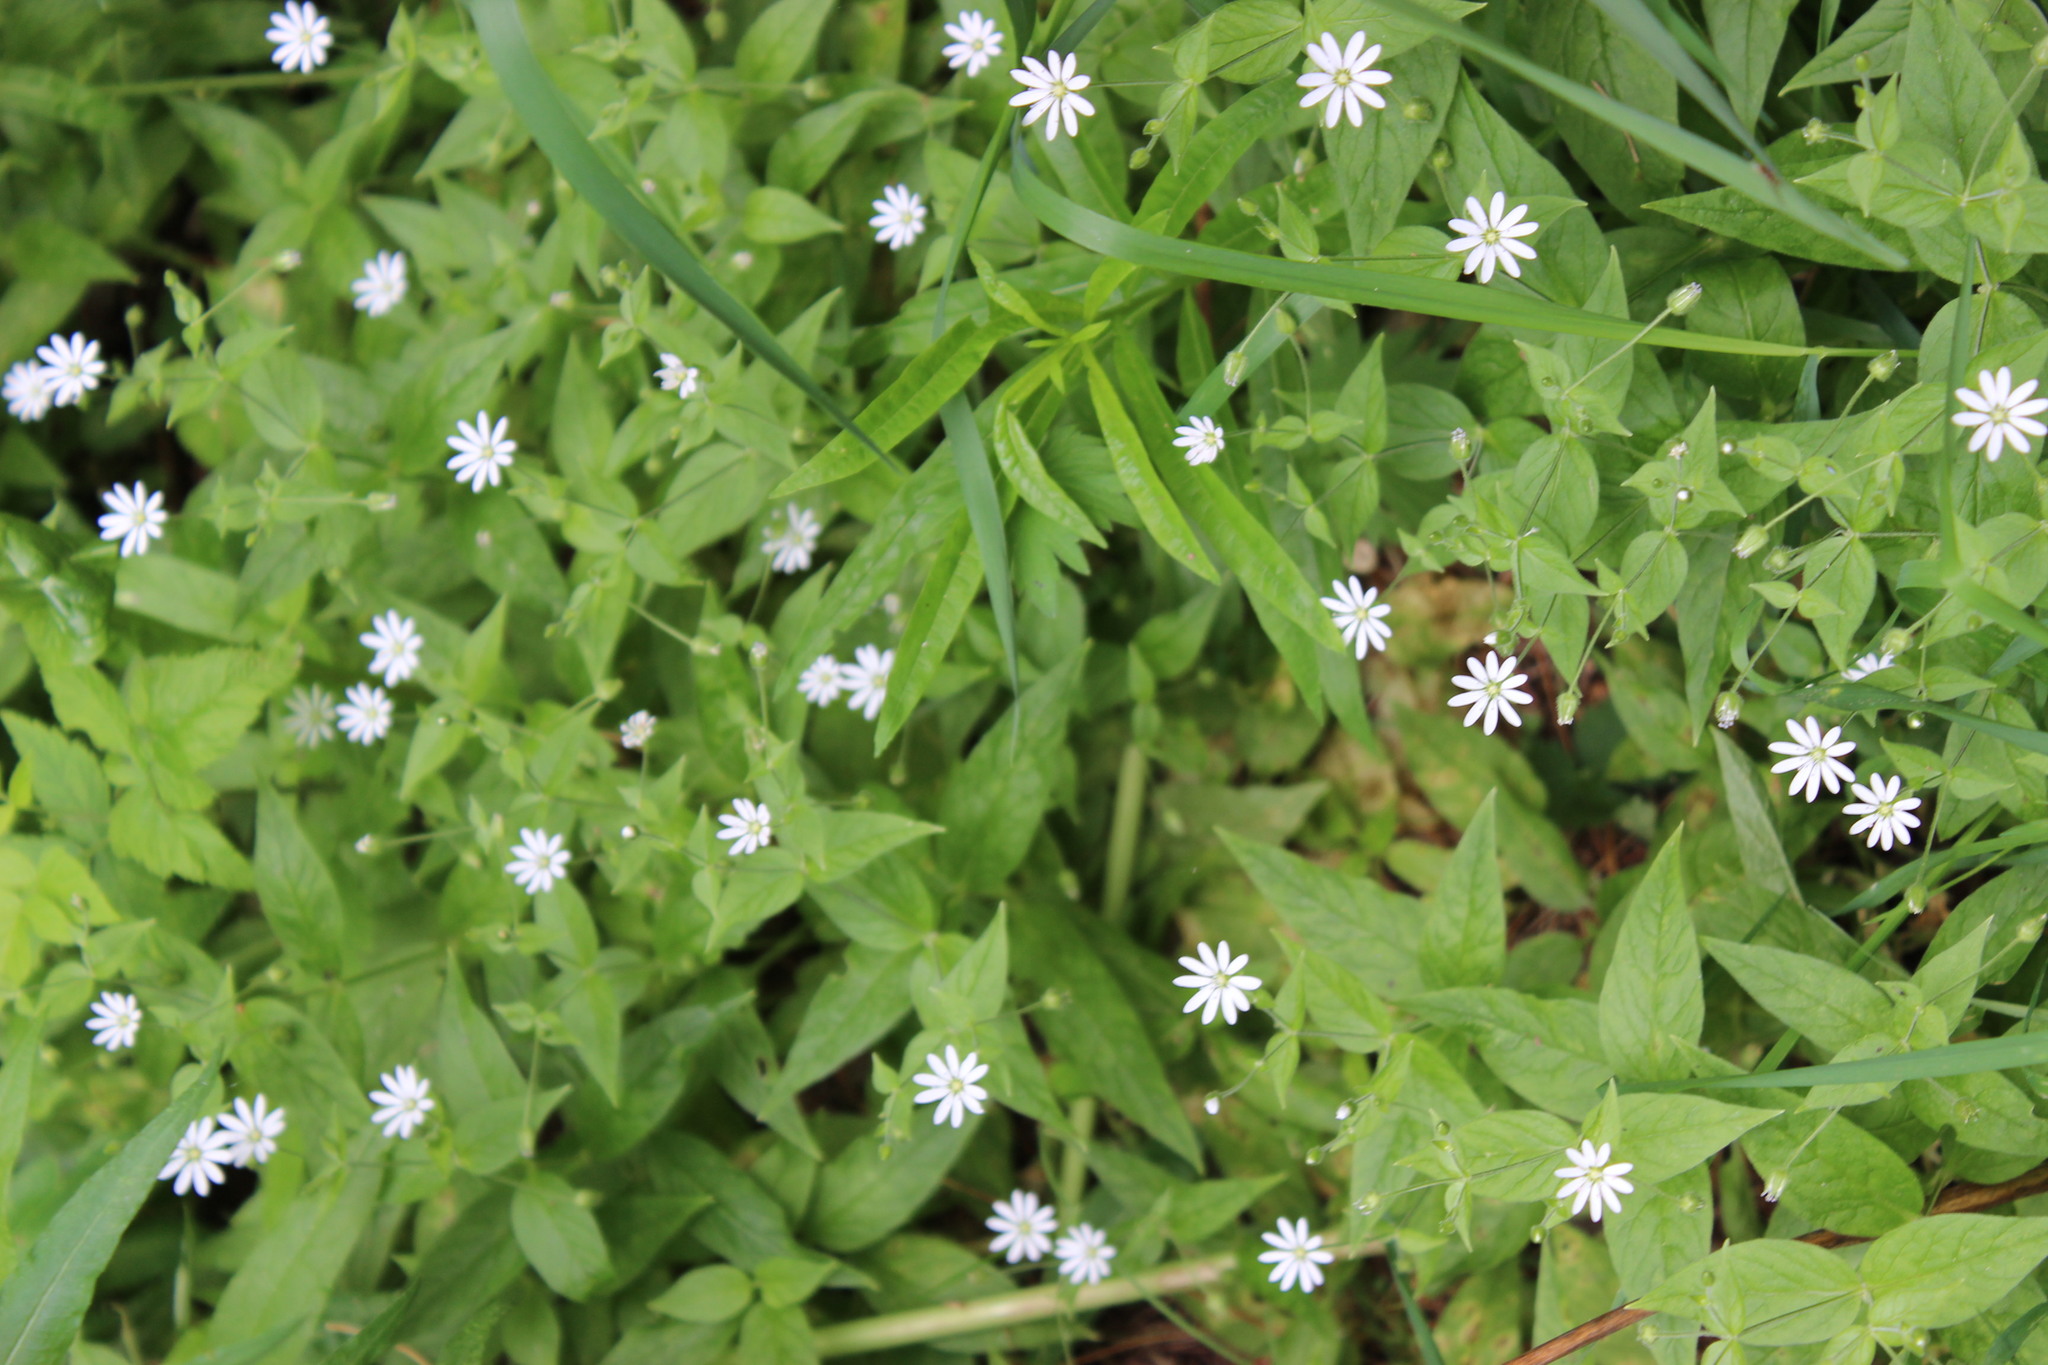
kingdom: Plantae
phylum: Tracheophyta
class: Magnoliopsida
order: Caryophyllales
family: Caryophyllaceae
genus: Stellaria
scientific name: Stellaria bungeana
